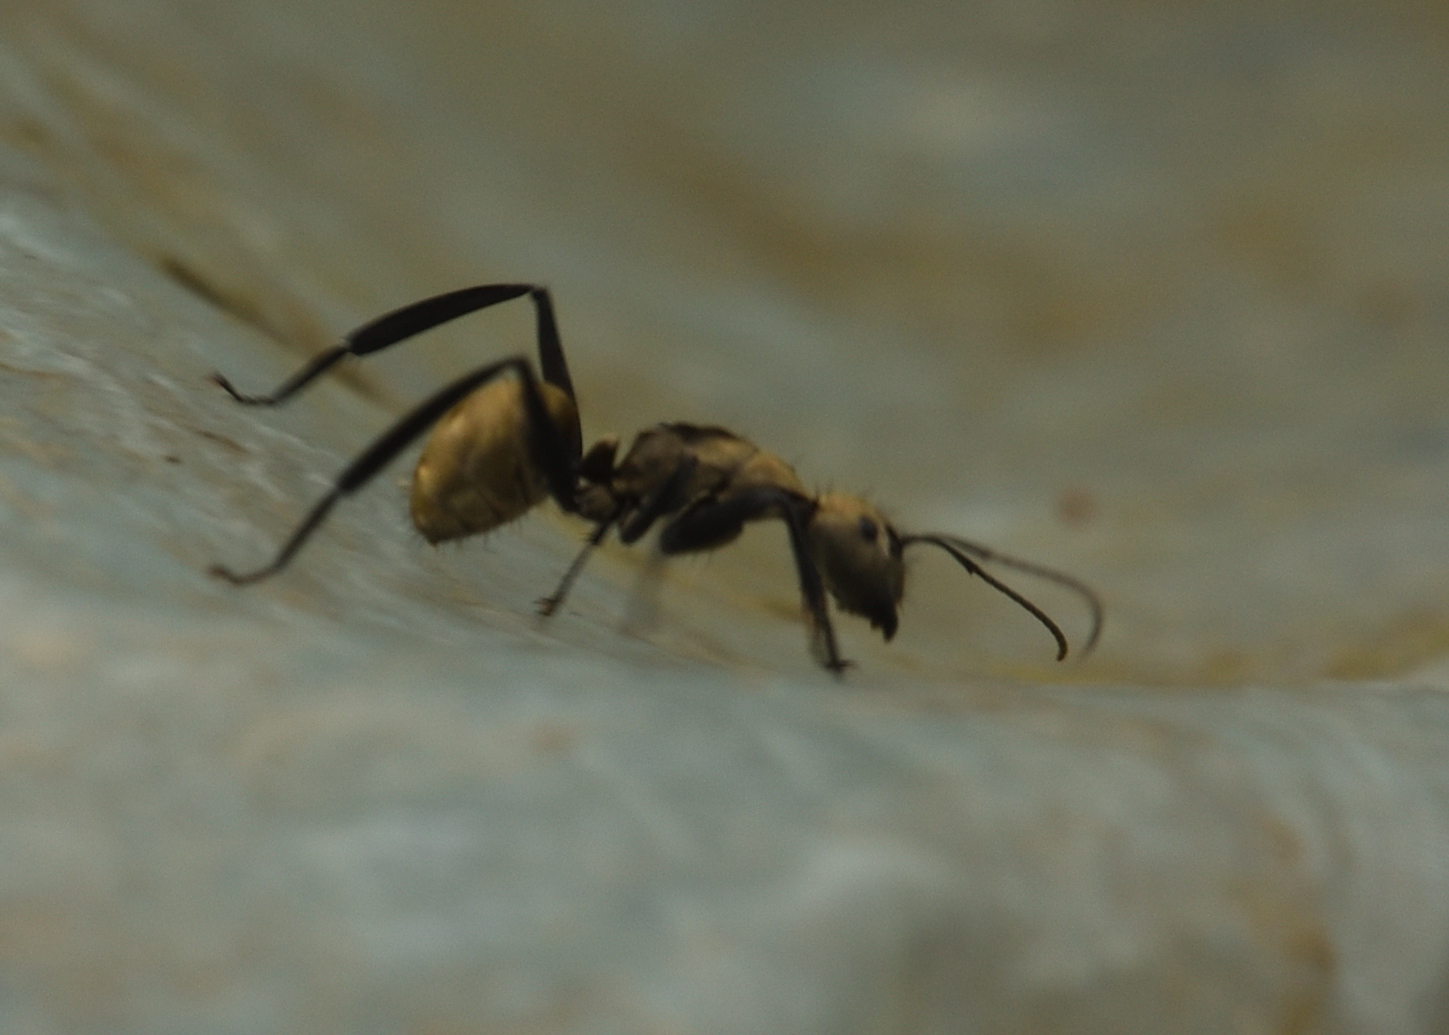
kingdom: Animalia
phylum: Arthropoda
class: Insecta
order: Hymenoptera
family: Formicidae
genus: Camponotus
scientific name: Camponotus sericeiventris
